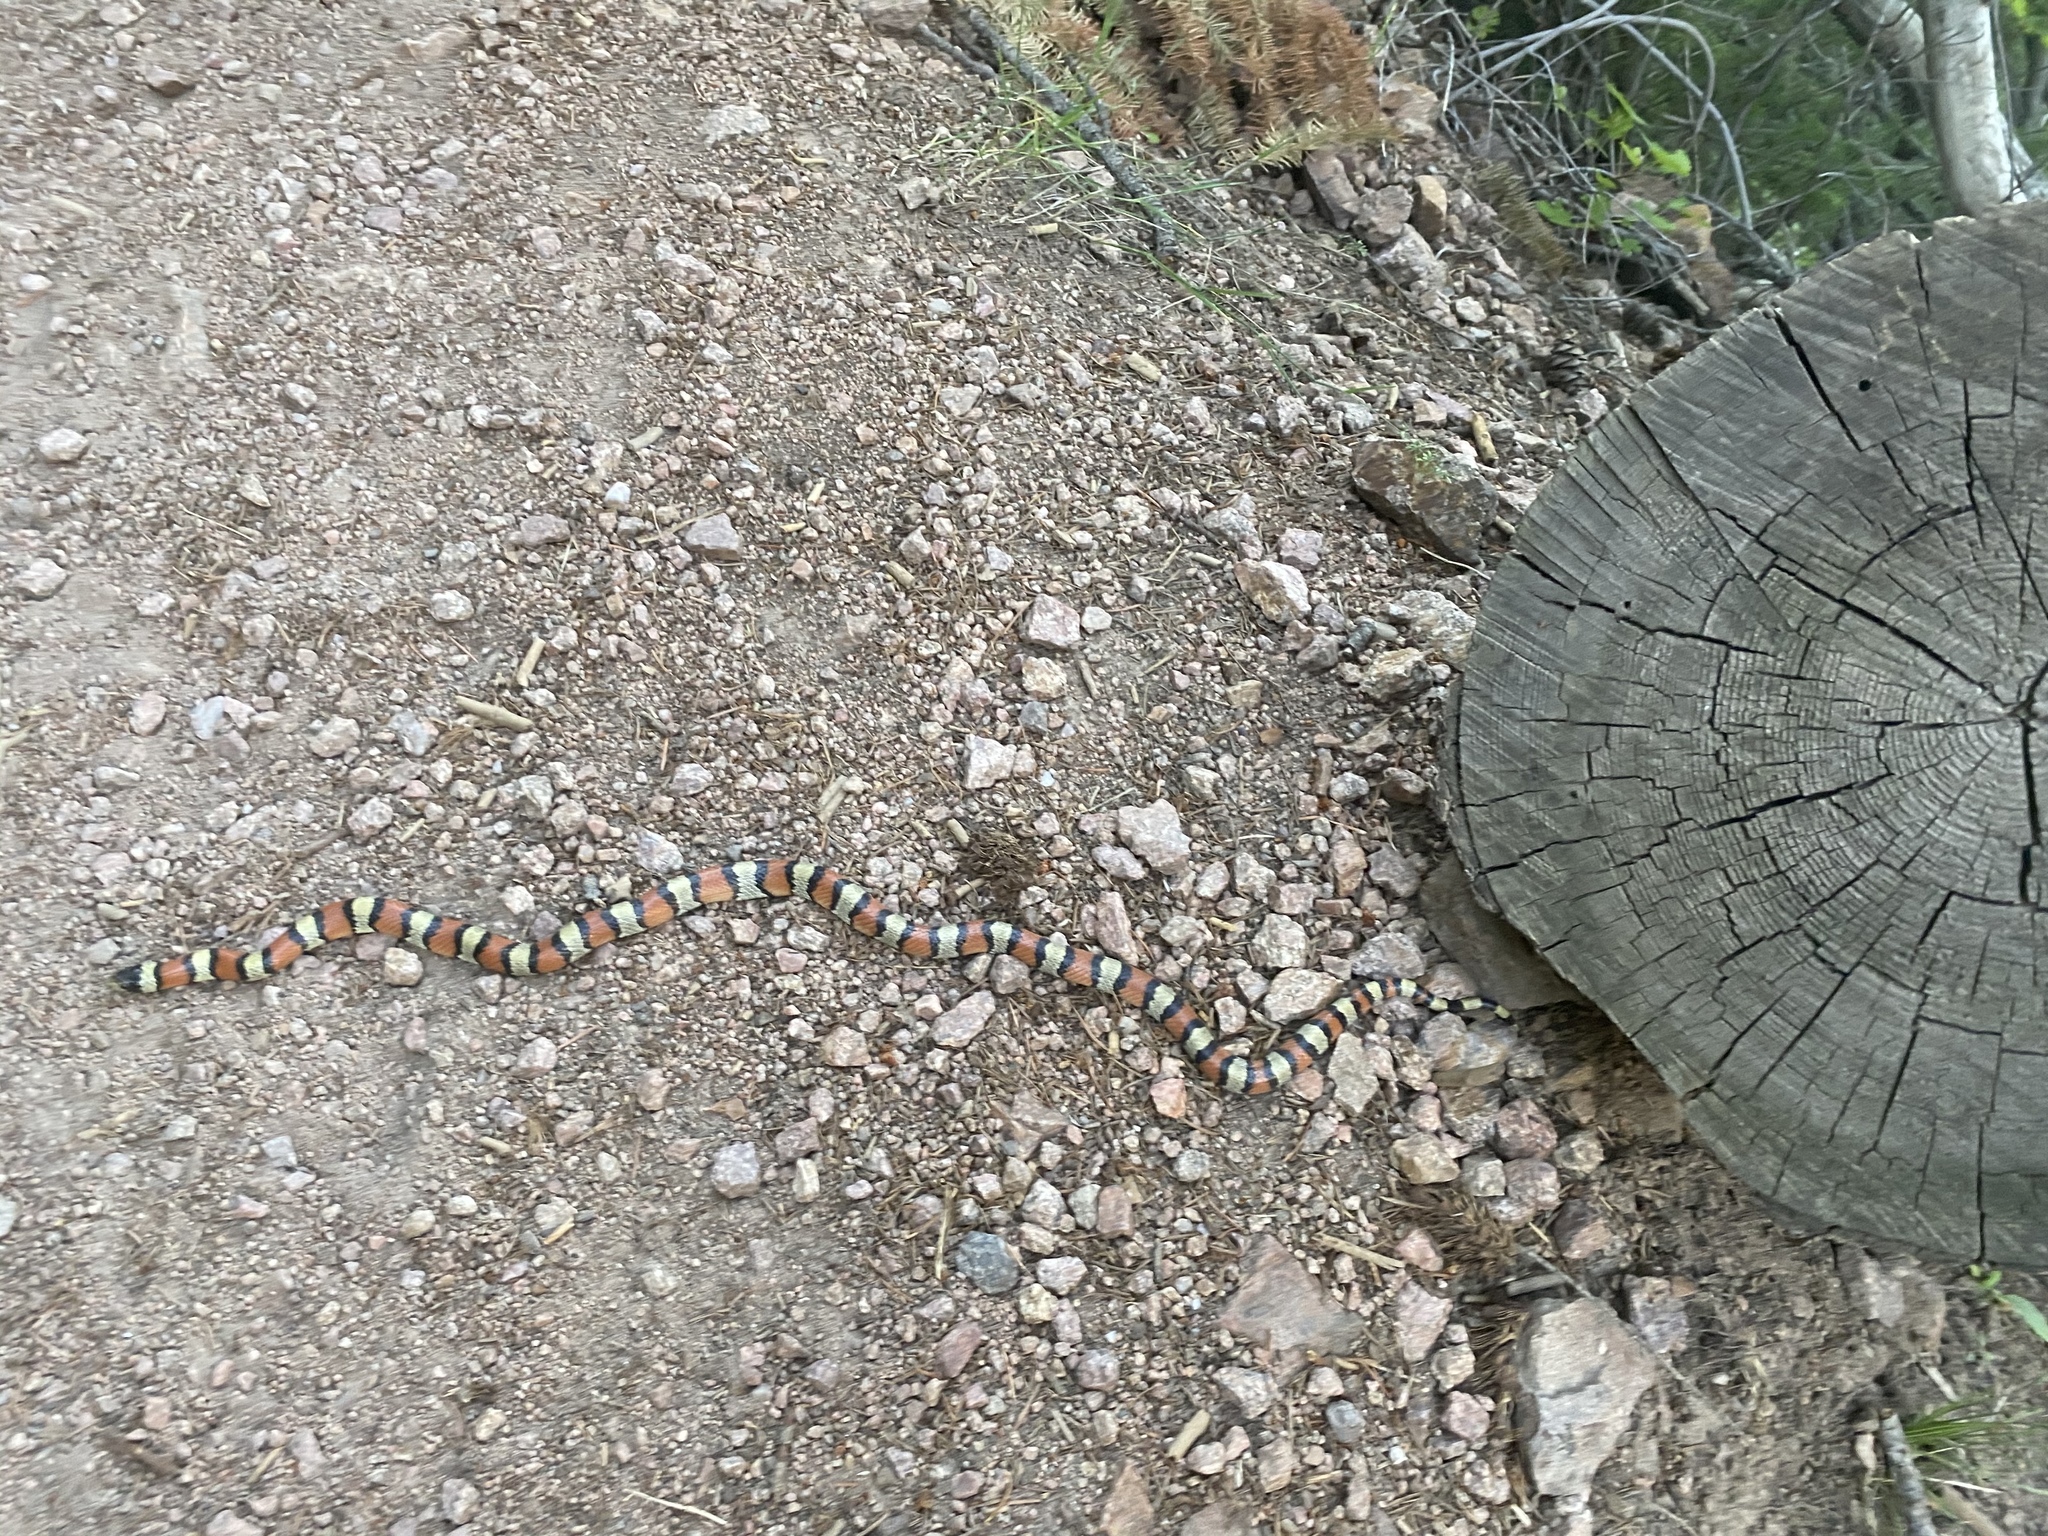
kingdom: Animalia
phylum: Chordata
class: Squamata
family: Colubridae
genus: Lampropeltis
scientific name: Lampropeltis gentilis
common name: Central plains milksnake
